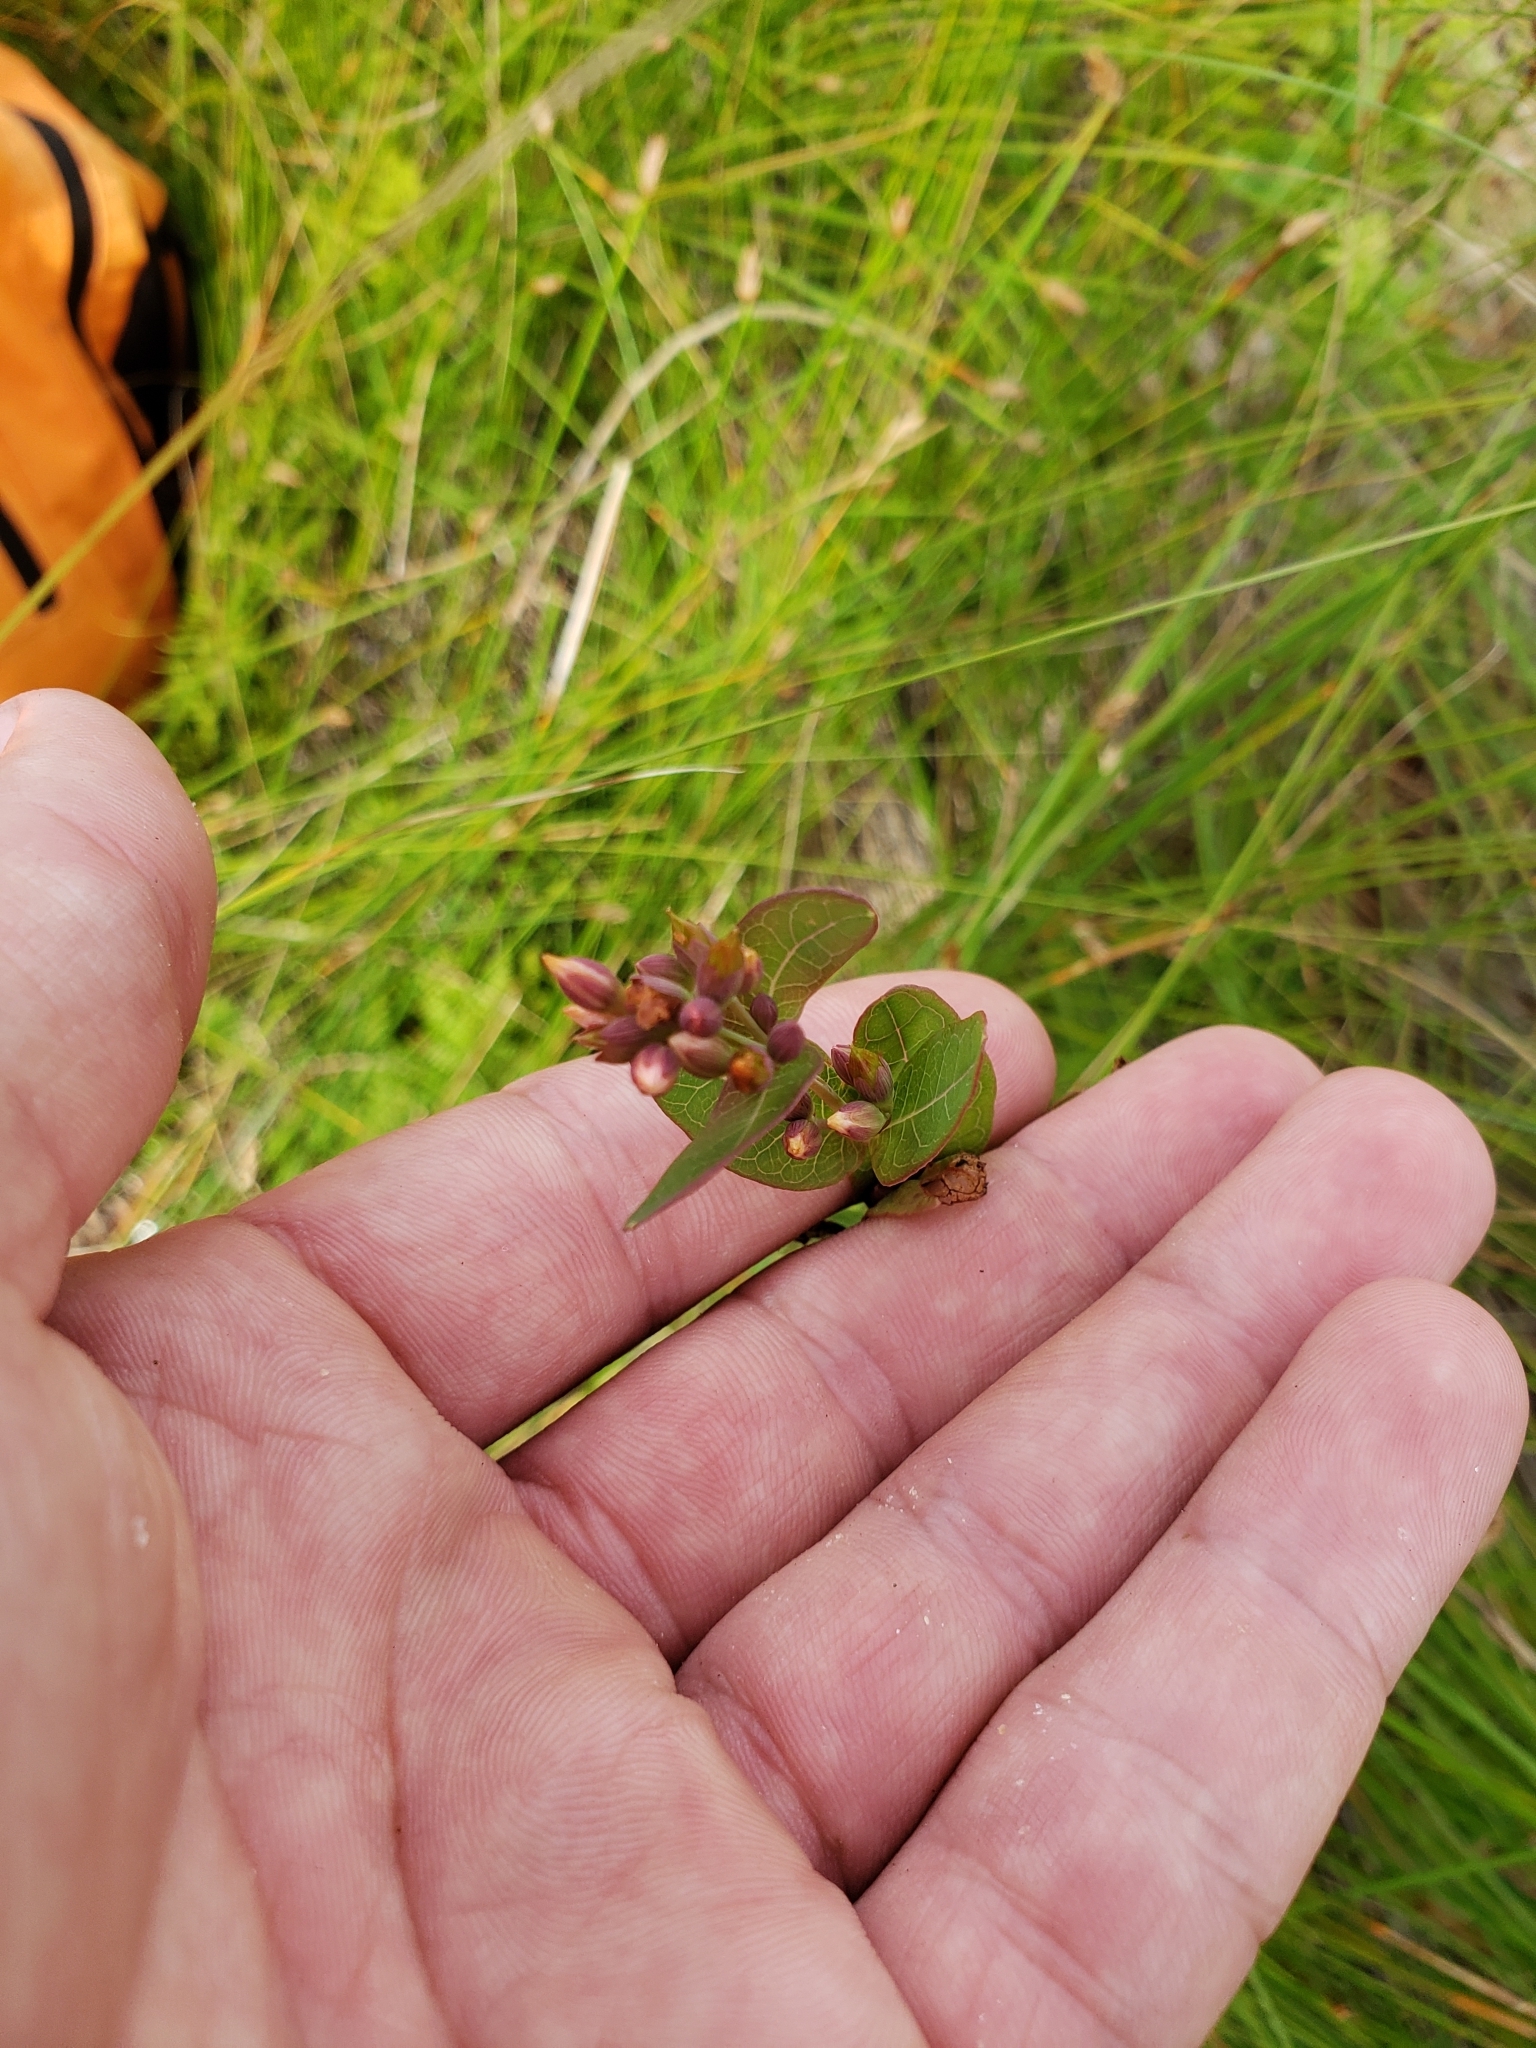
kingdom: Plantae
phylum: Tracheophyta
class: Magnoliopsida
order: Malpighiales
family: Hypericaceae
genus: Triadenum
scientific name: Triadenum fraseri
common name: Fraser's marsh st. johnswort
